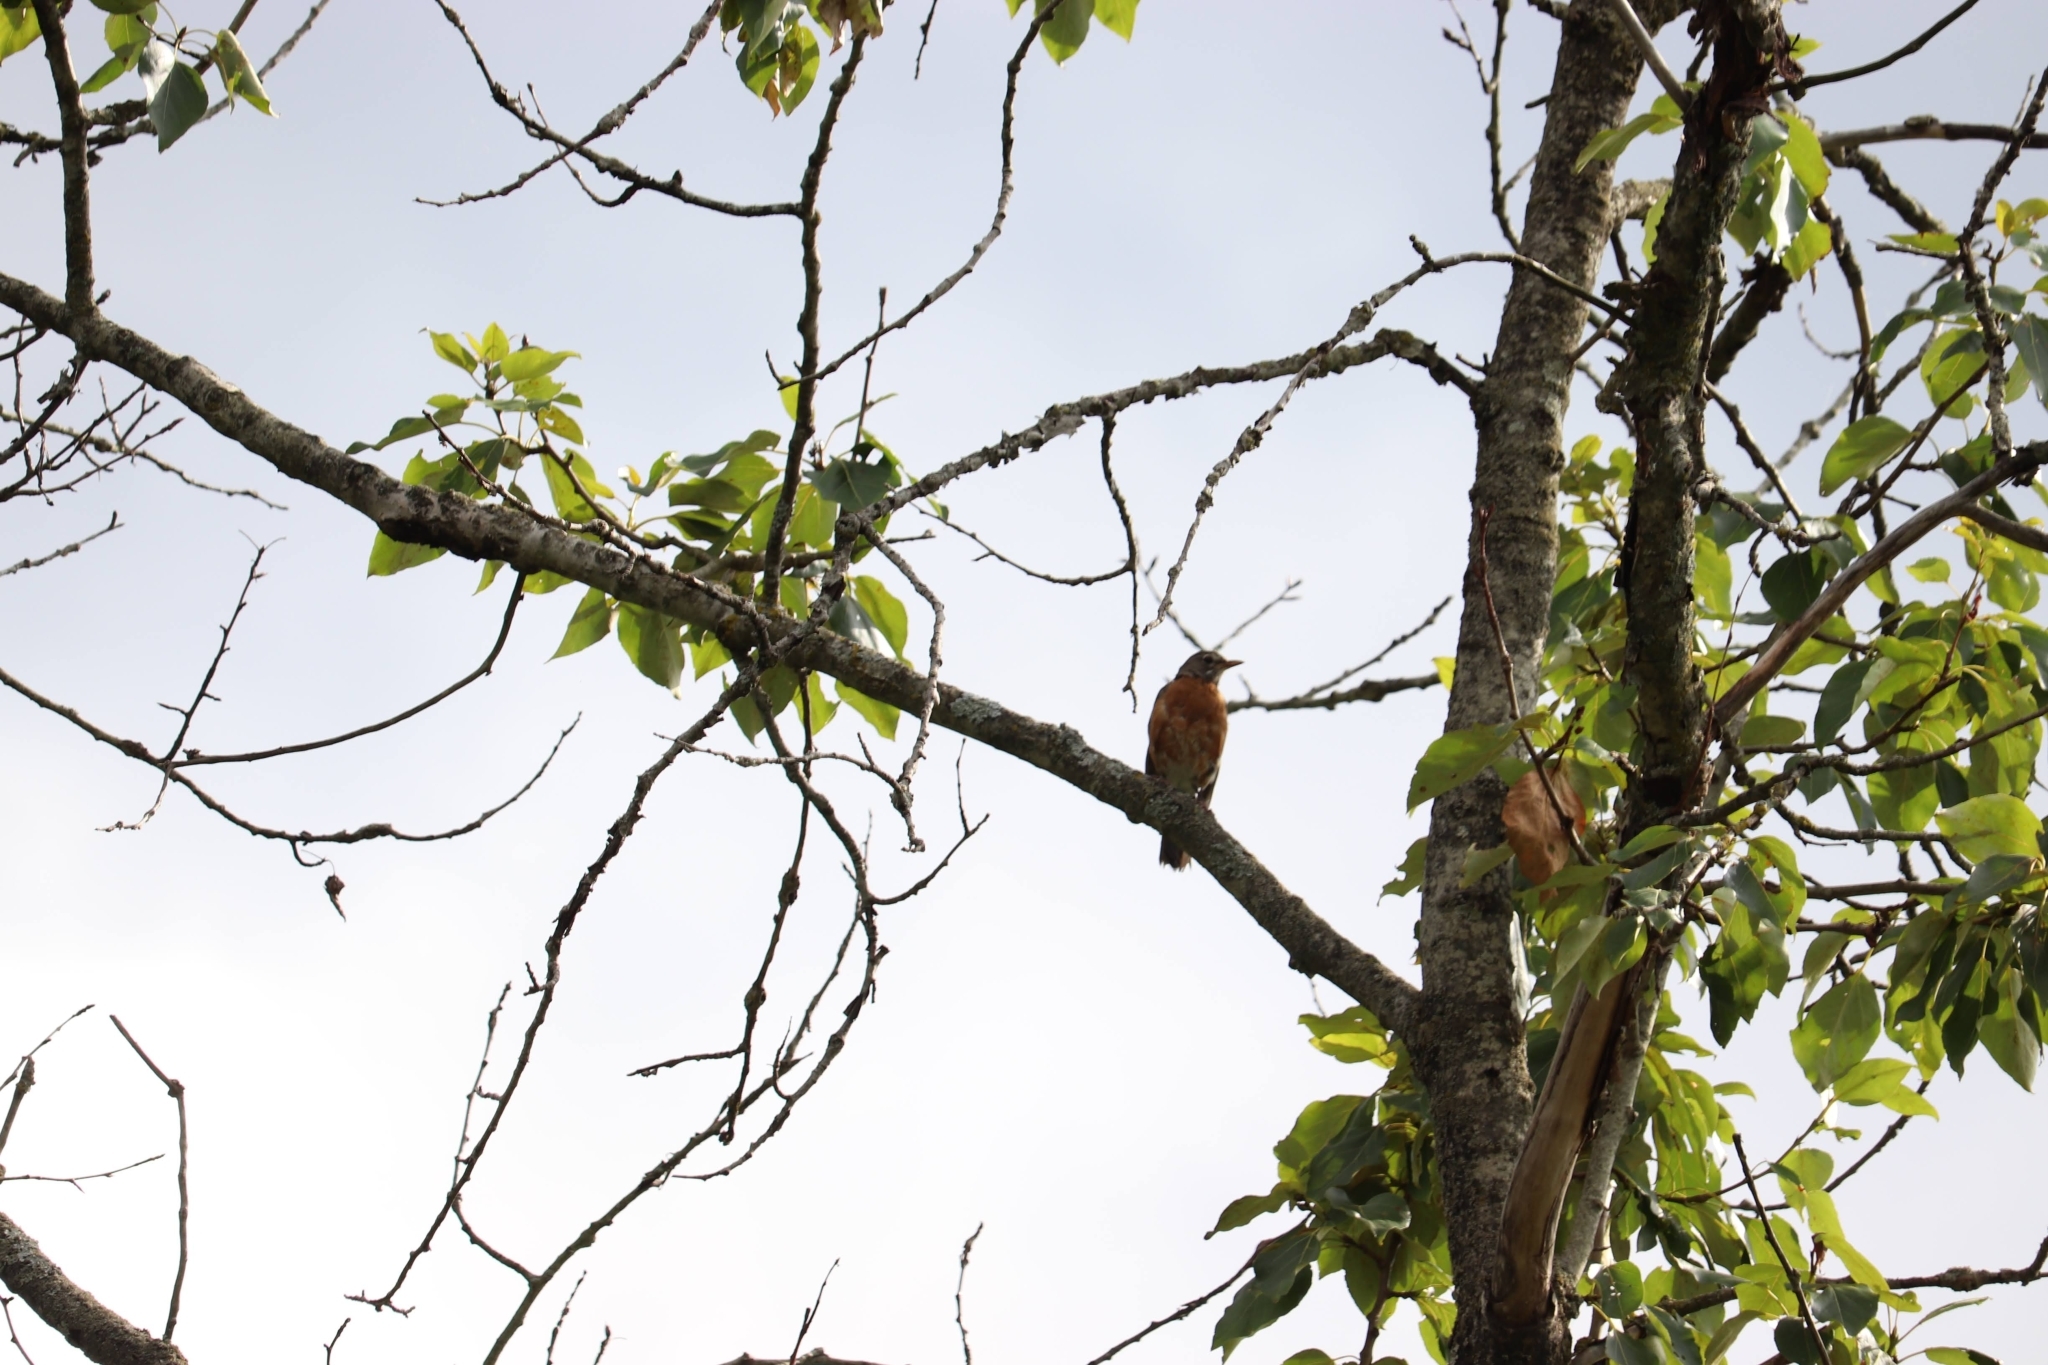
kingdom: Animalia
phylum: Chordata
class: Aves
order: Passeriformes
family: Turdidae
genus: Turdus
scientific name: Turdus migratorius
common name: American robin
